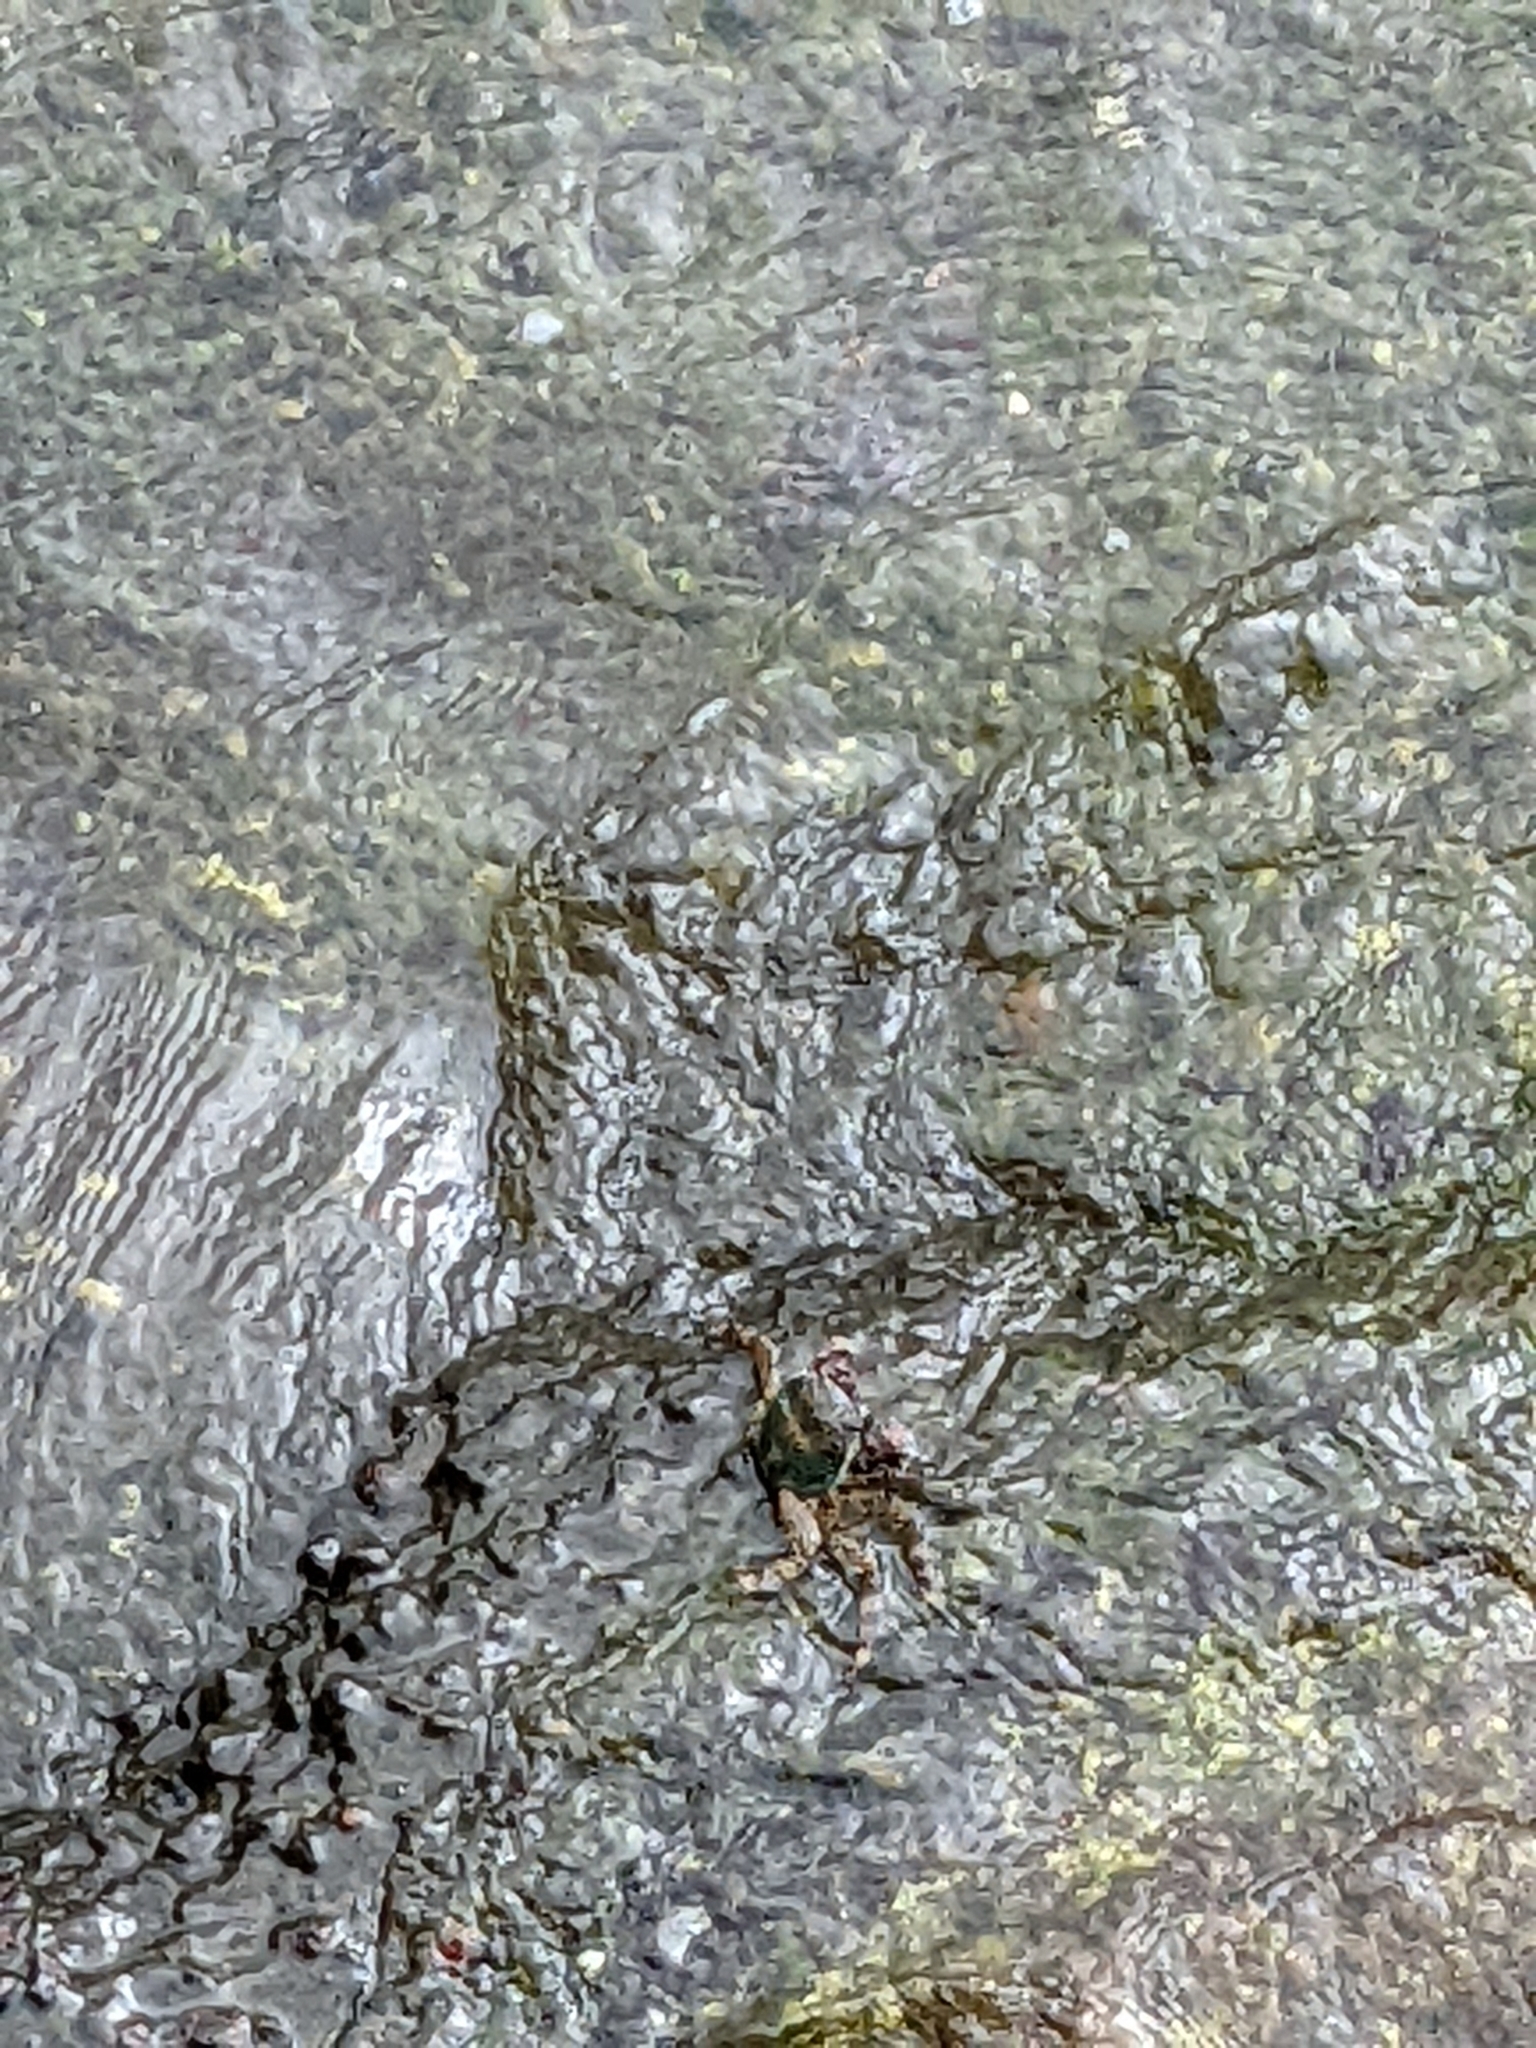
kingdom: Animalia
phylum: Arthropoda
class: Malacostraca
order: Decapoda
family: Grapsidae
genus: Grapsus
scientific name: Grapsus albolineatus
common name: Mottled lightfoot crab
